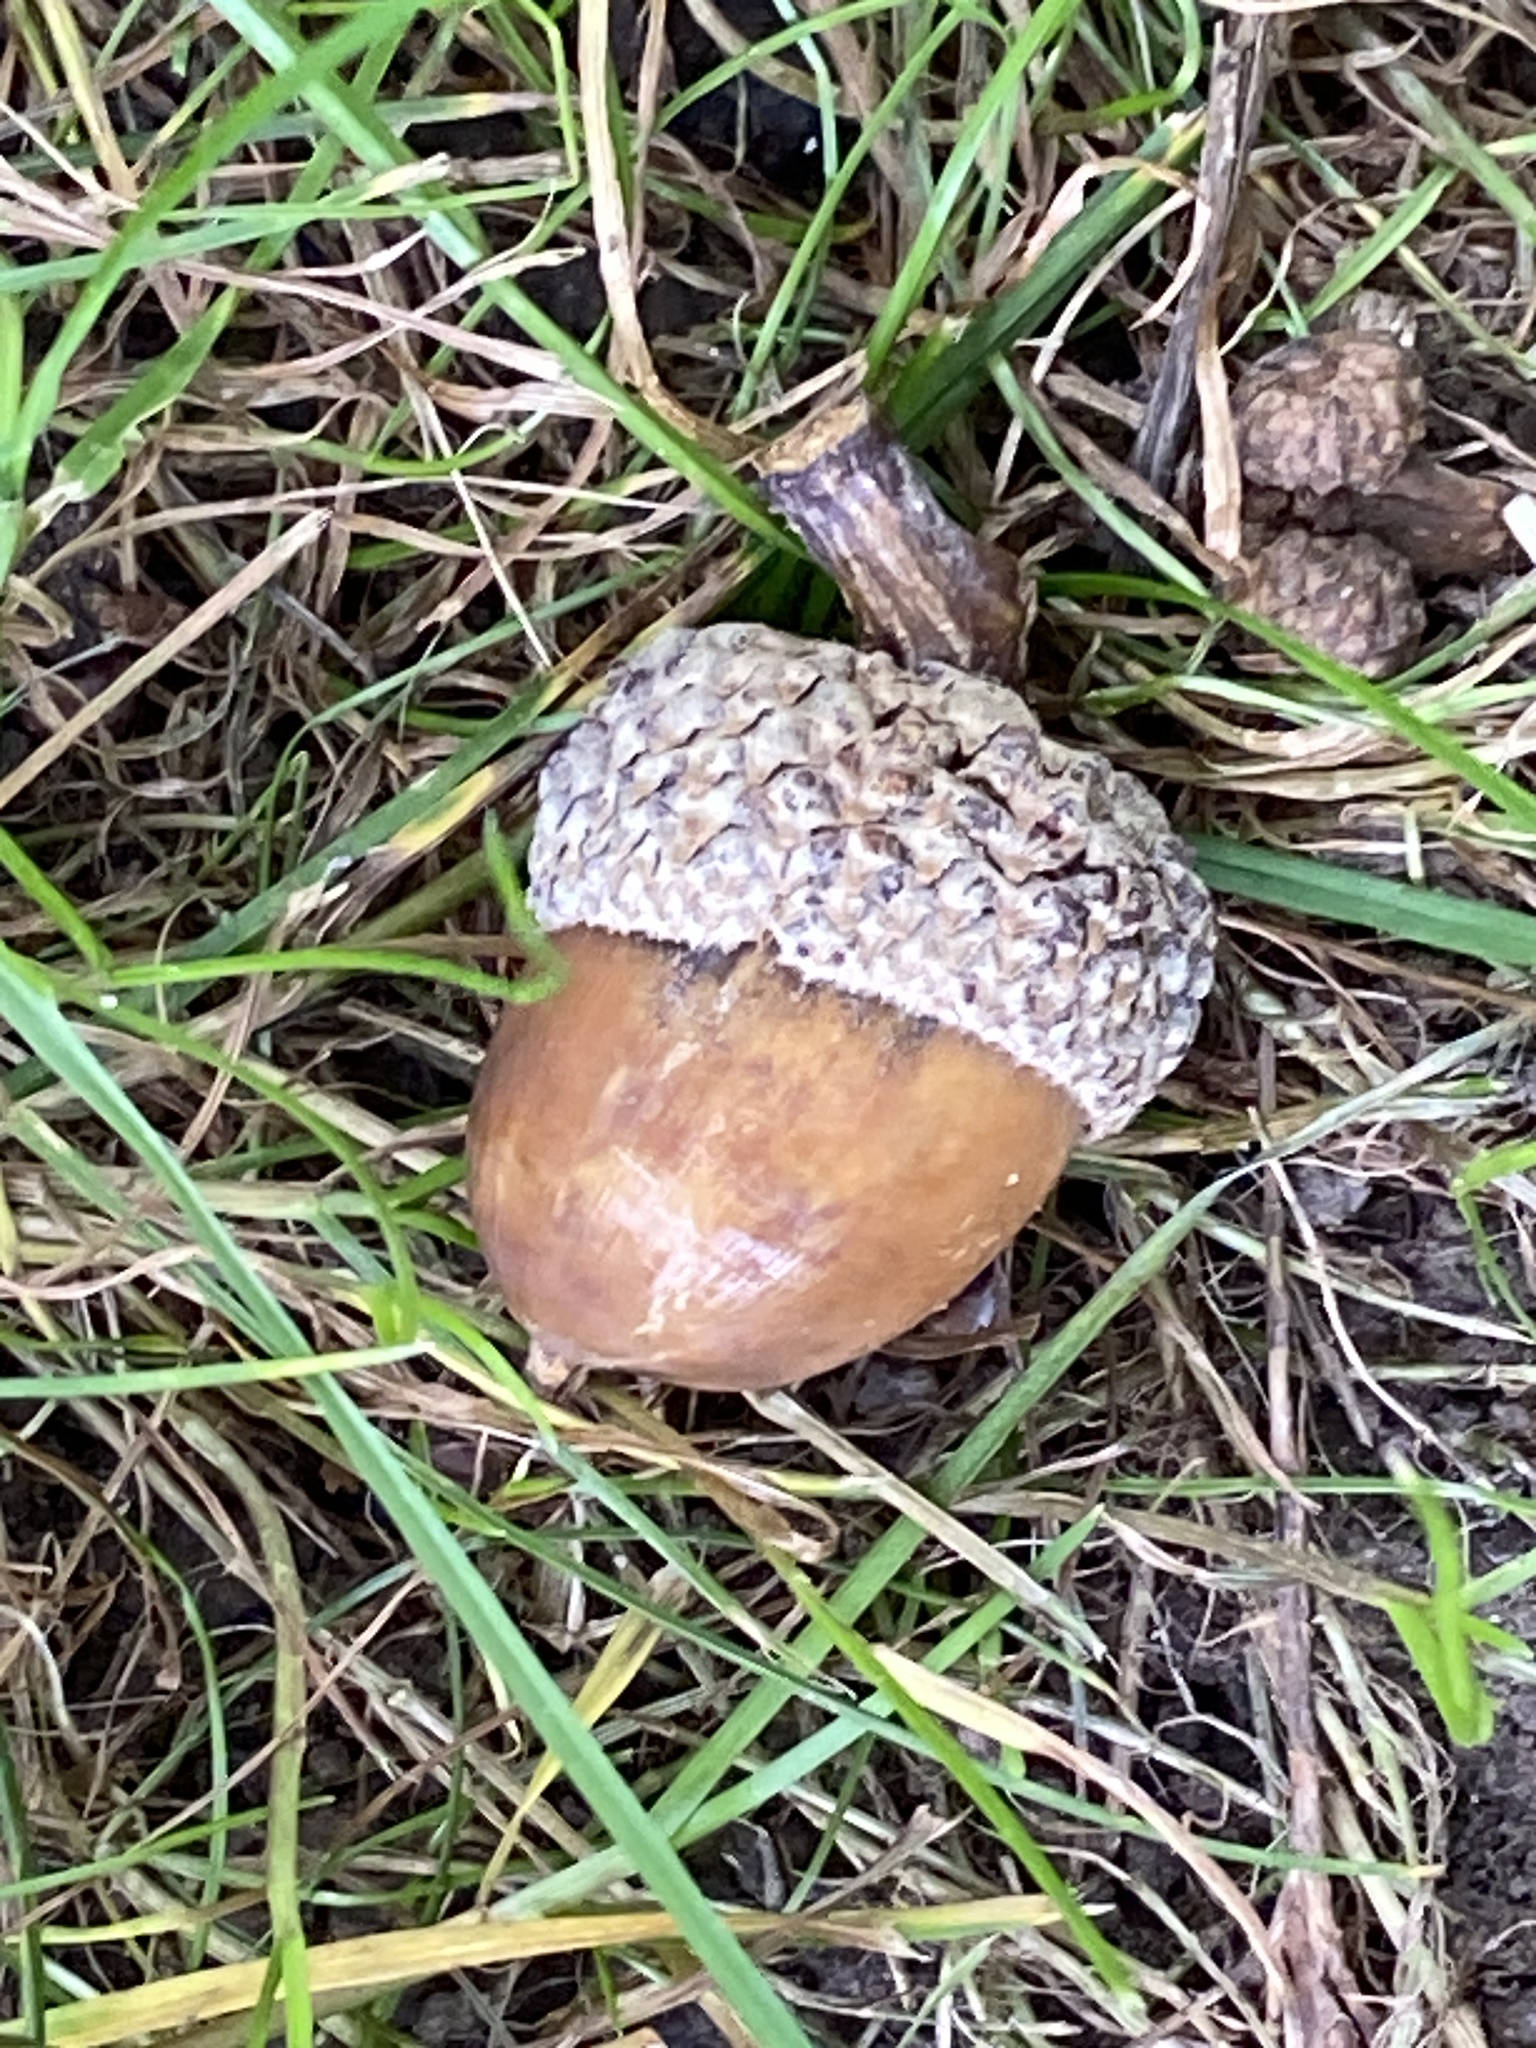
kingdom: Plantae
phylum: Tracheophyta
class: Magnoliopsida
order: Fagales
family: Fagaceae
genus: Quercus
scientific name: Quercus alba
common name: White oak
